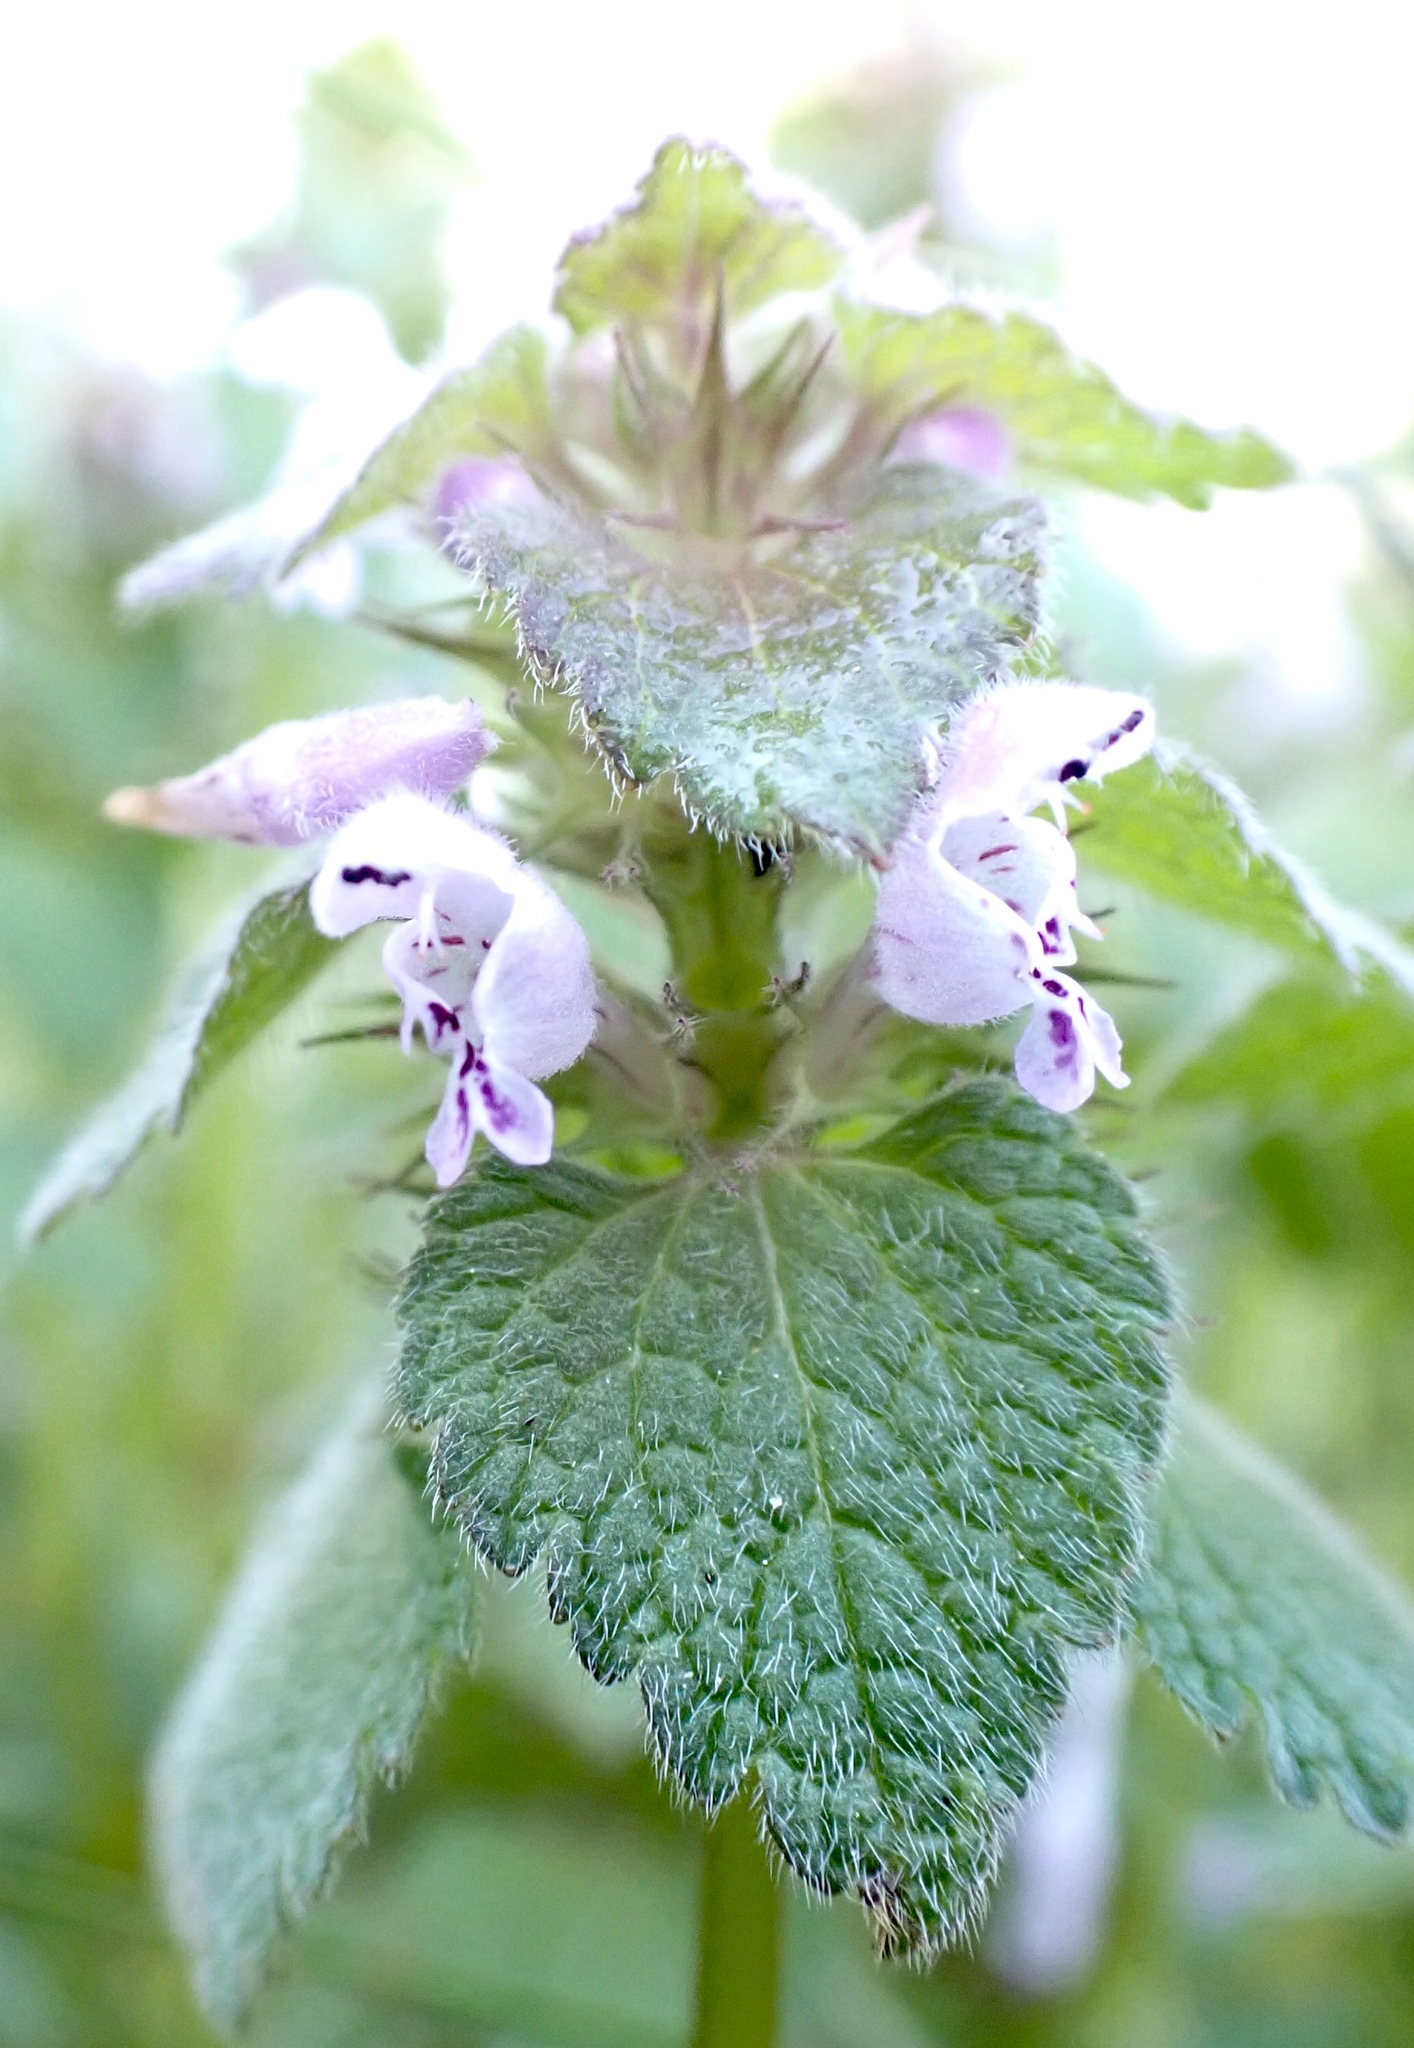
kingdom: Plantae
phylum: Tracheophyta
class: Magnoliopsida
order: Lamiales
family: Lamiaceae
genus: Lamium
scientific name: Lamium purpureum
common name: Red dead-nettle
